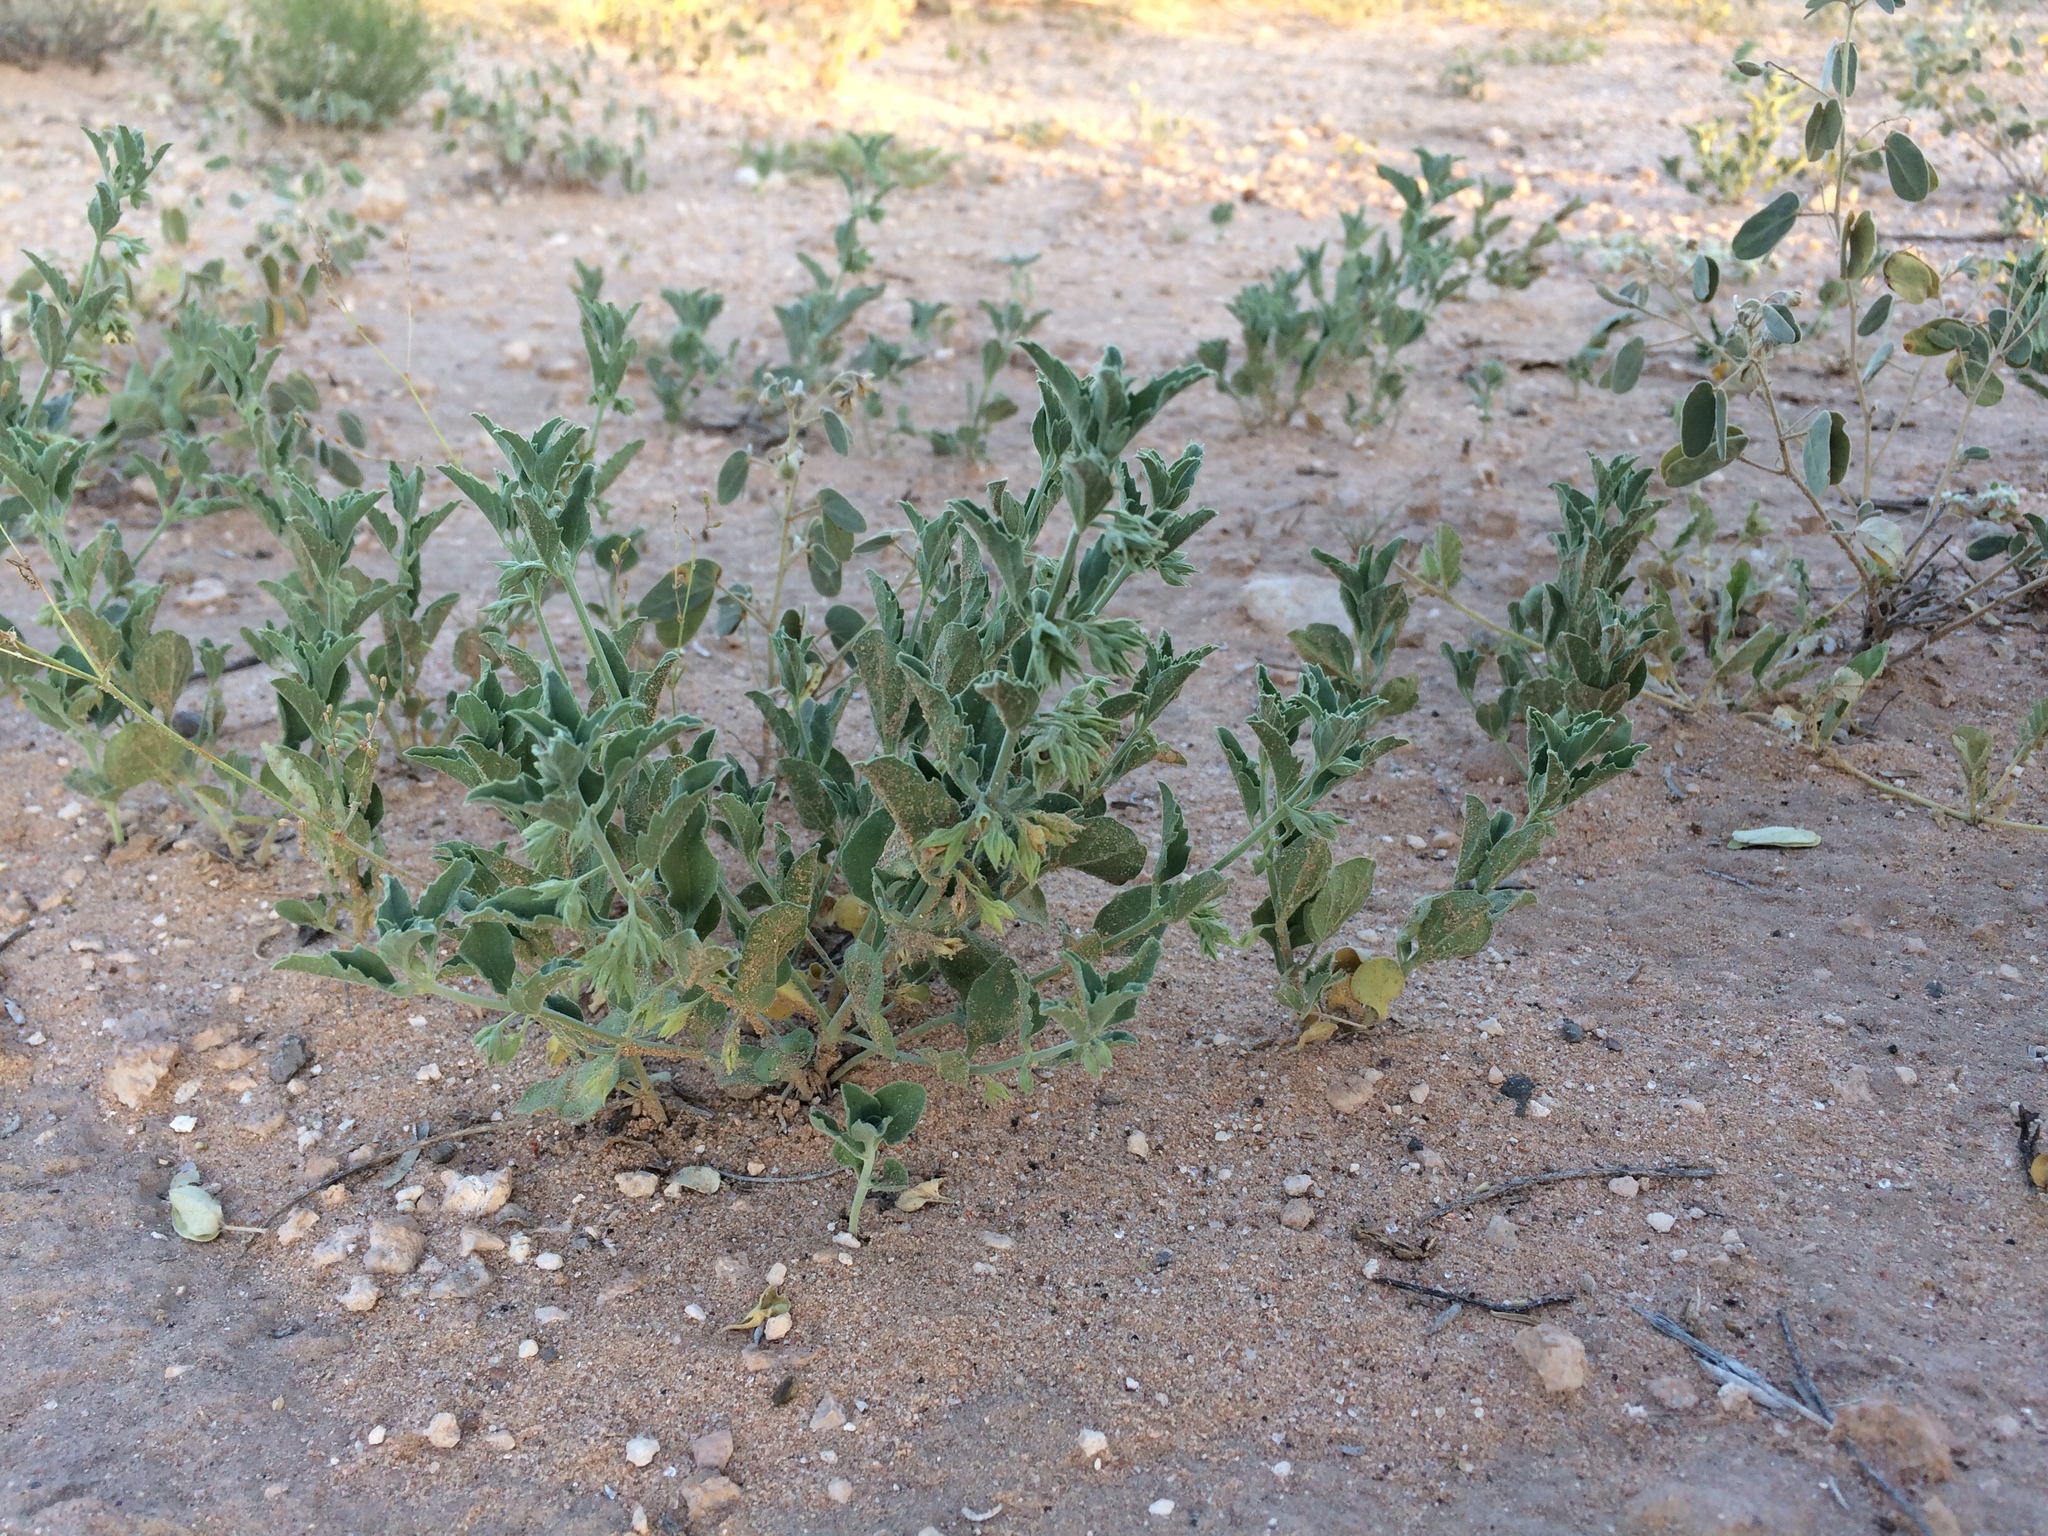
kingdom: Plantae
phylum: Tracheophyta
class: Magnoliopsida
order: Lamiales
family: Lamiaceae
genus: Tetraclea
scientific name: Tetraclea coulteri
